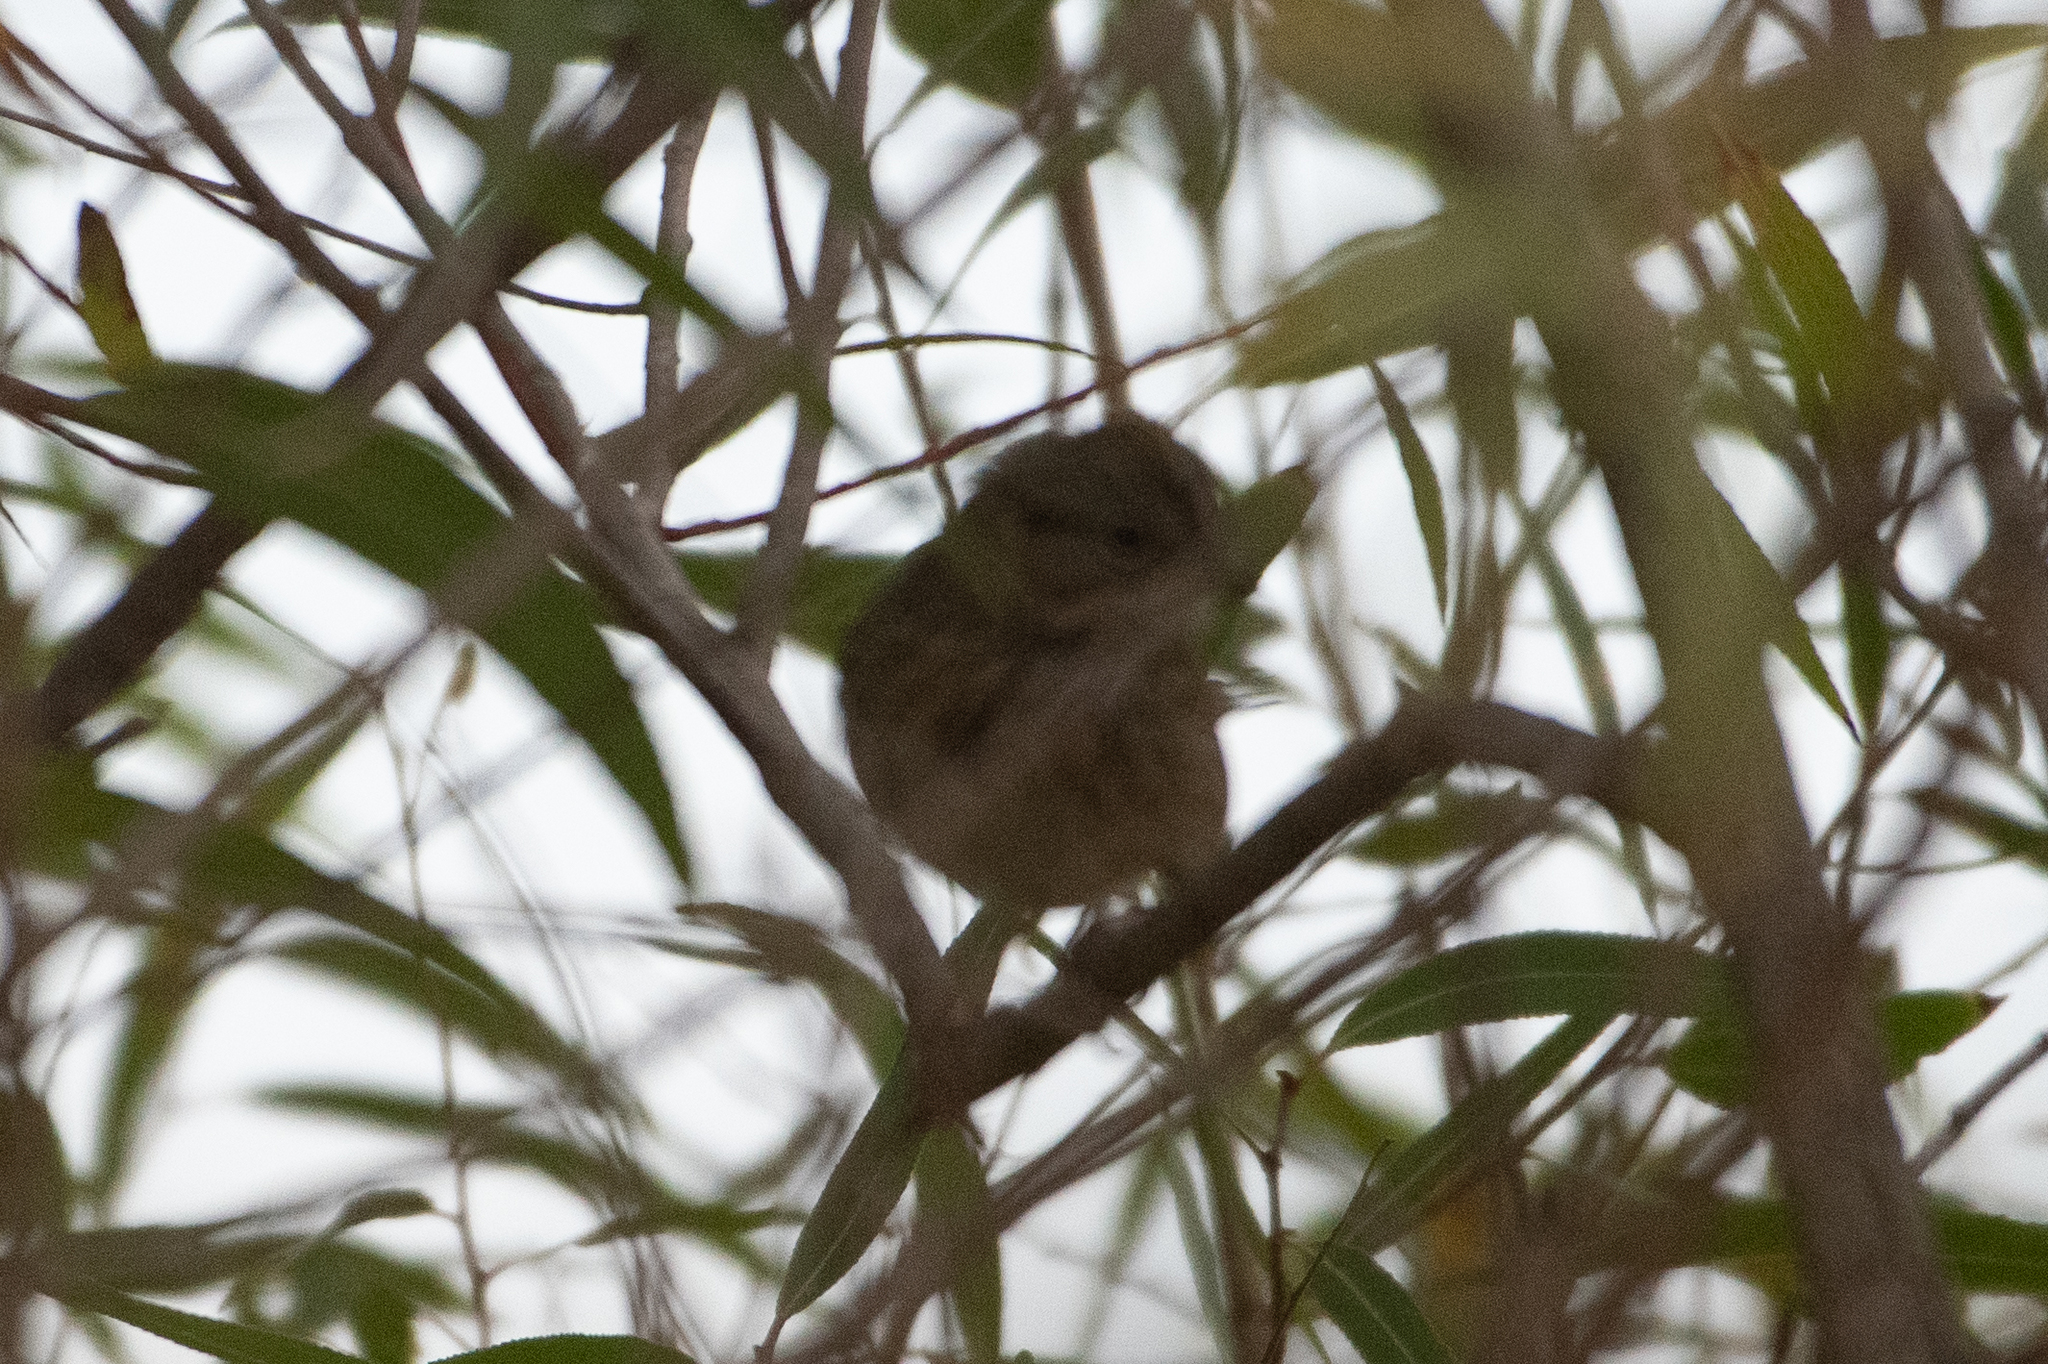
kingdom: Animalia
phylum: Chordata
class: Aves
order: Passeriformes
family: Passerellidae
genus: Melospiza
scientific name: Melospiza lincolnii
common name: Lincoln's sparrow
